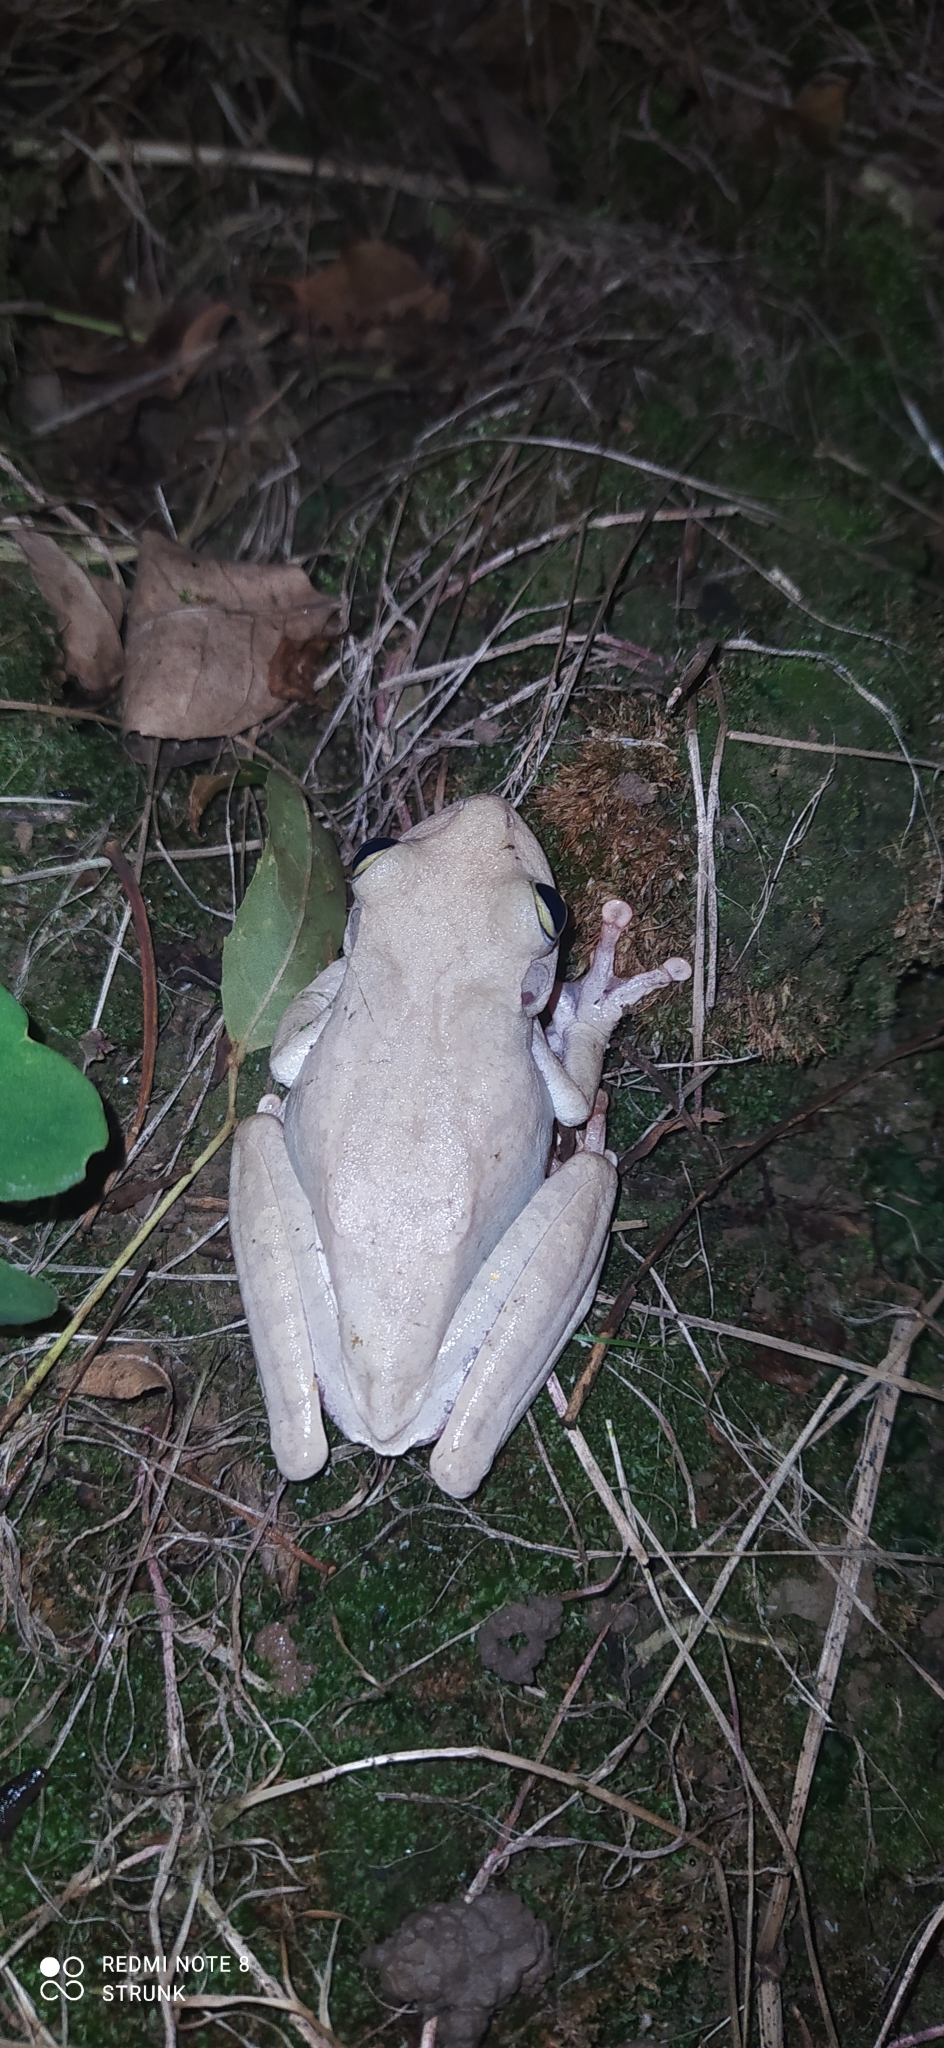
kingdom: Animalia
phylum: Chordata
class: Amphibia
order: Anura
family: Hylidae
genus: Boana
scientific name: Boana platanera
